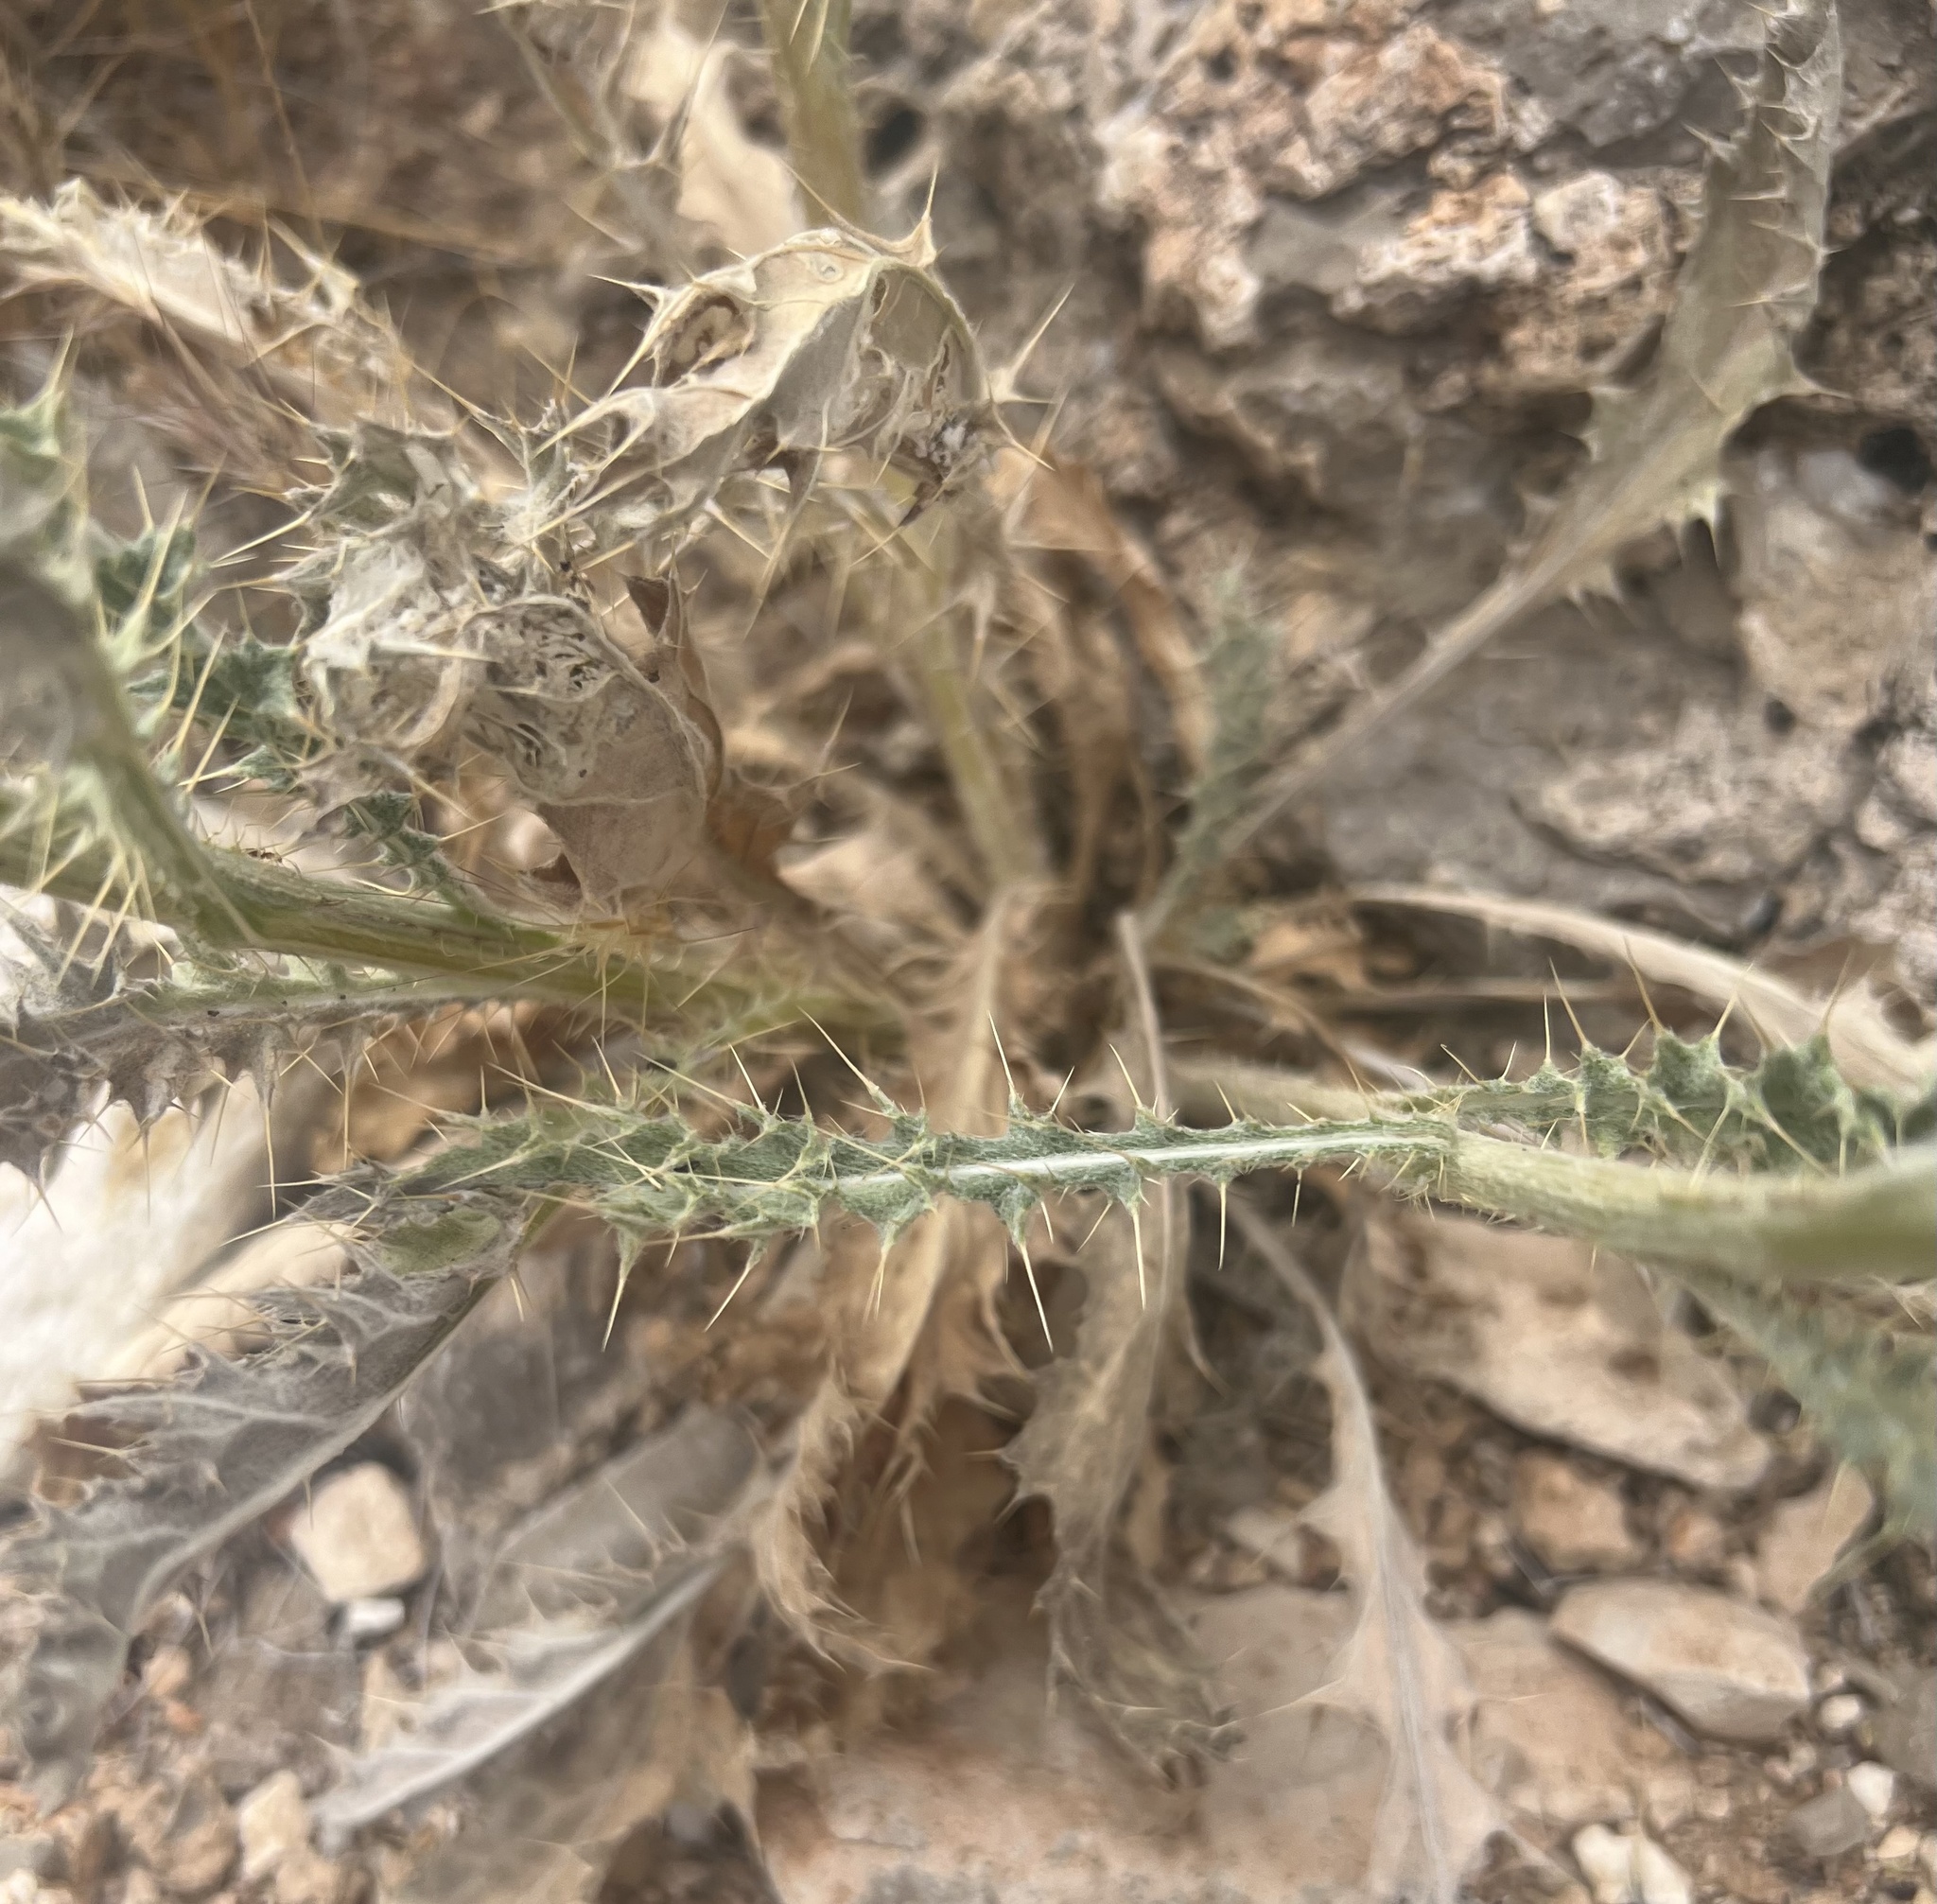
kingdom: Plantae
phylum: Tracheophyta
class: Magnoliopsida
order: Asterales
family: Asteraceae
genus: Cirsium
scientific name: Cirsium neomexicanum
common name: New mexico thistle
